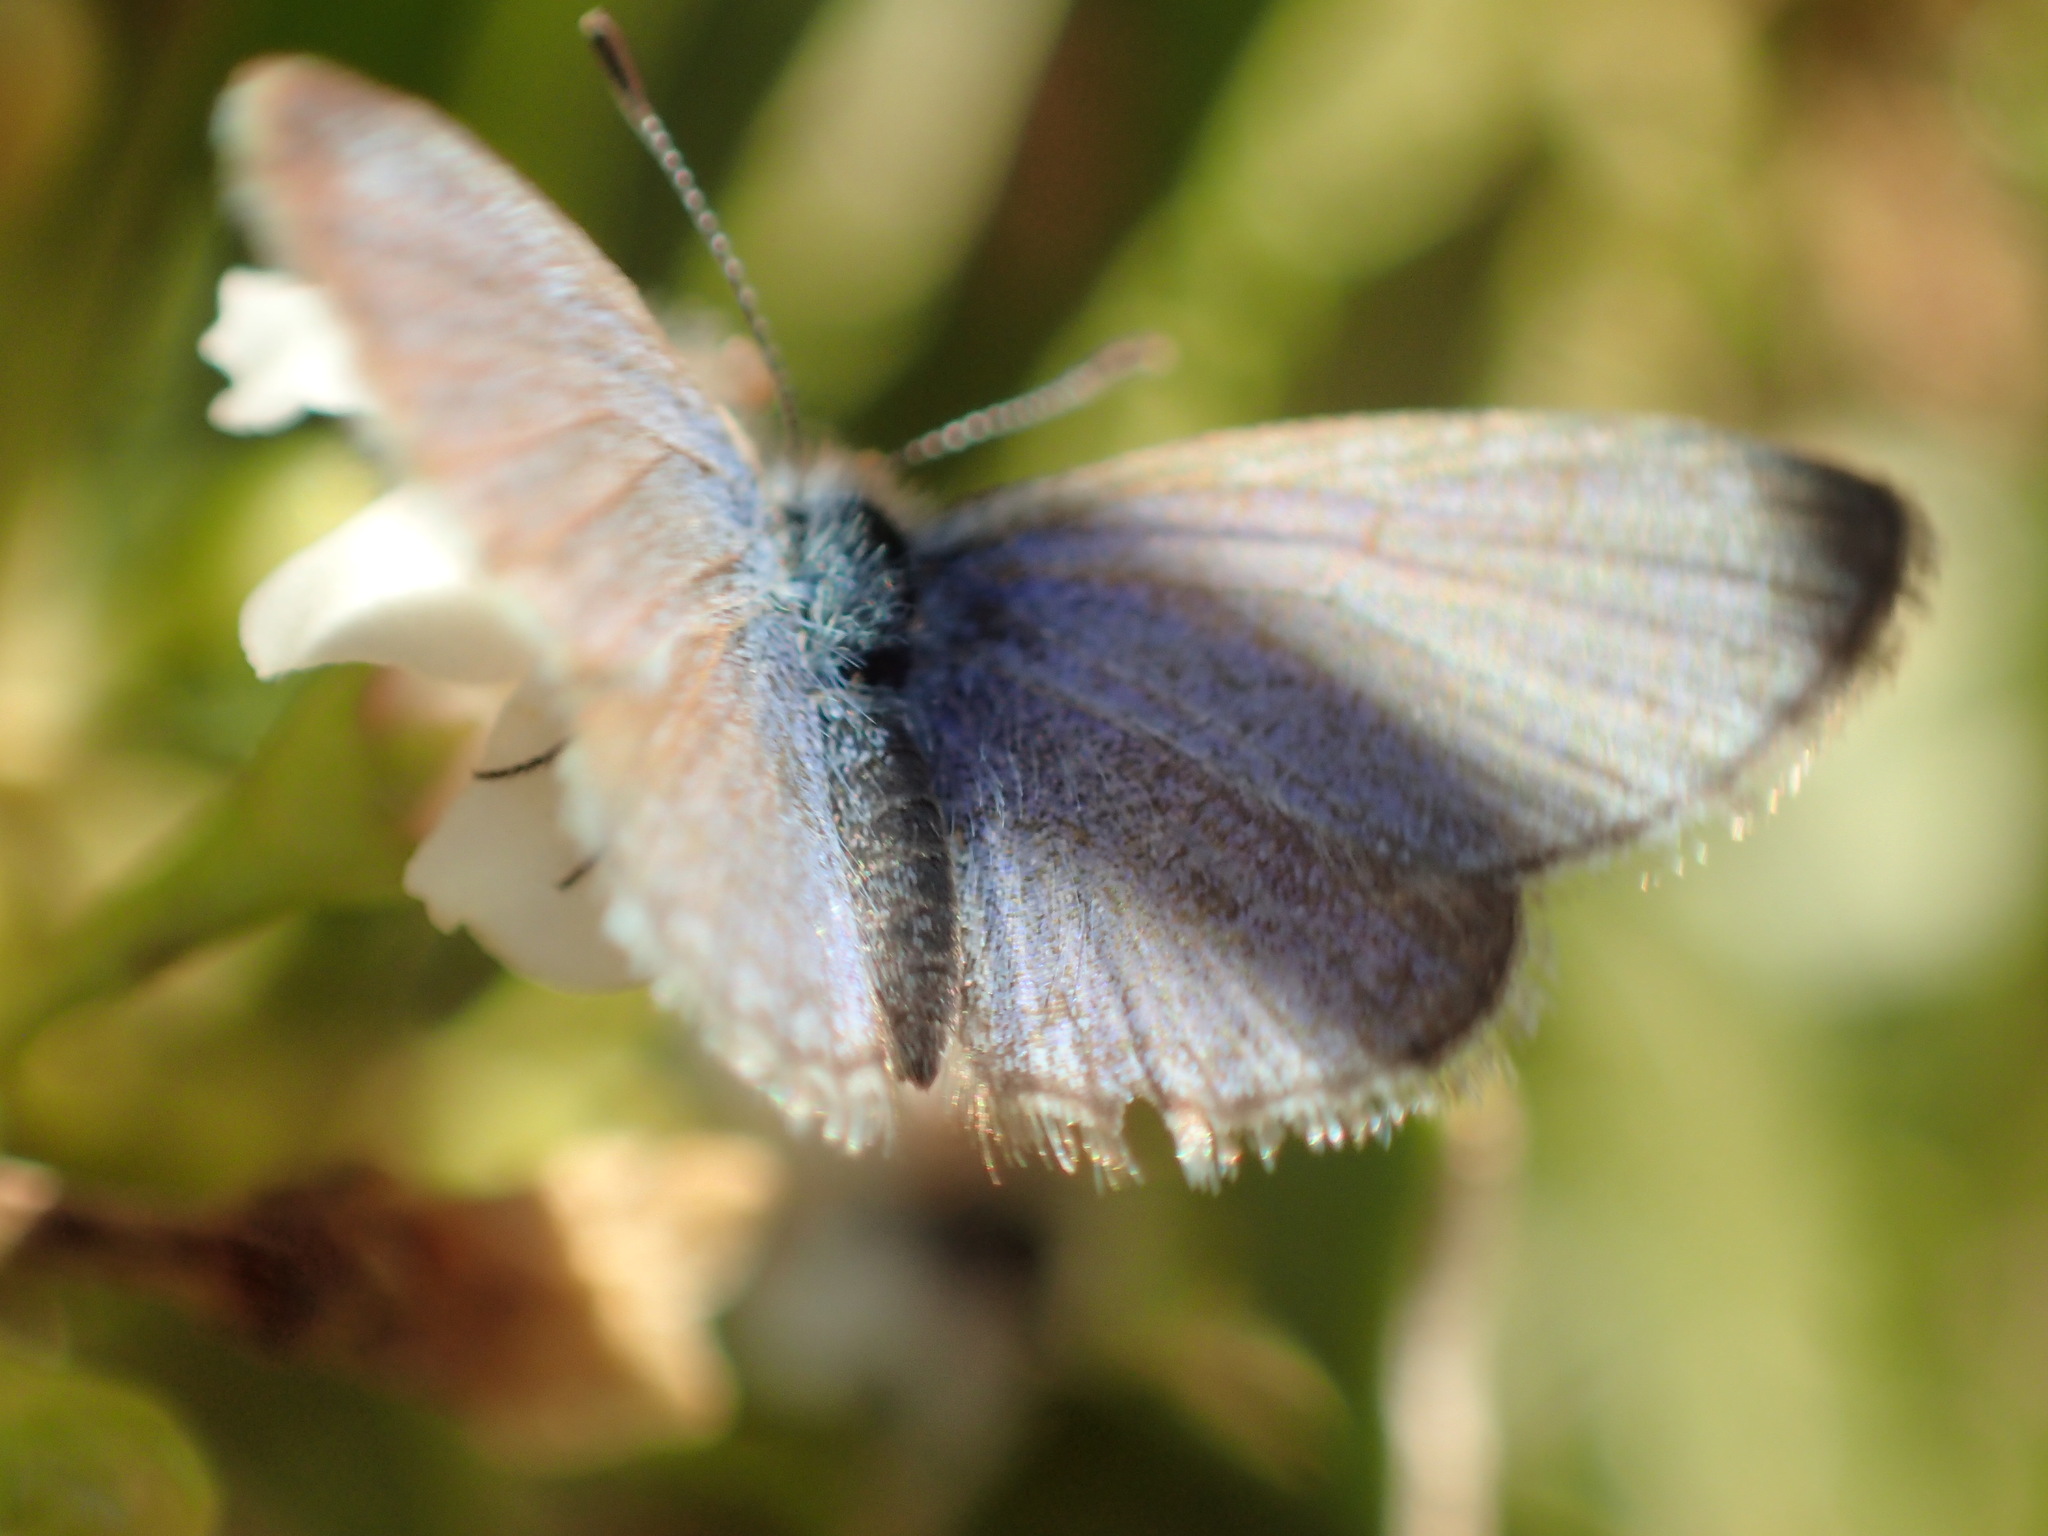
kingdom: Animalia
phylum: Arthropoda
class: Insecta
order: Lepidoptera
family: Lycaenidae
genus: Zizina
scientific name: Zizina labradus
